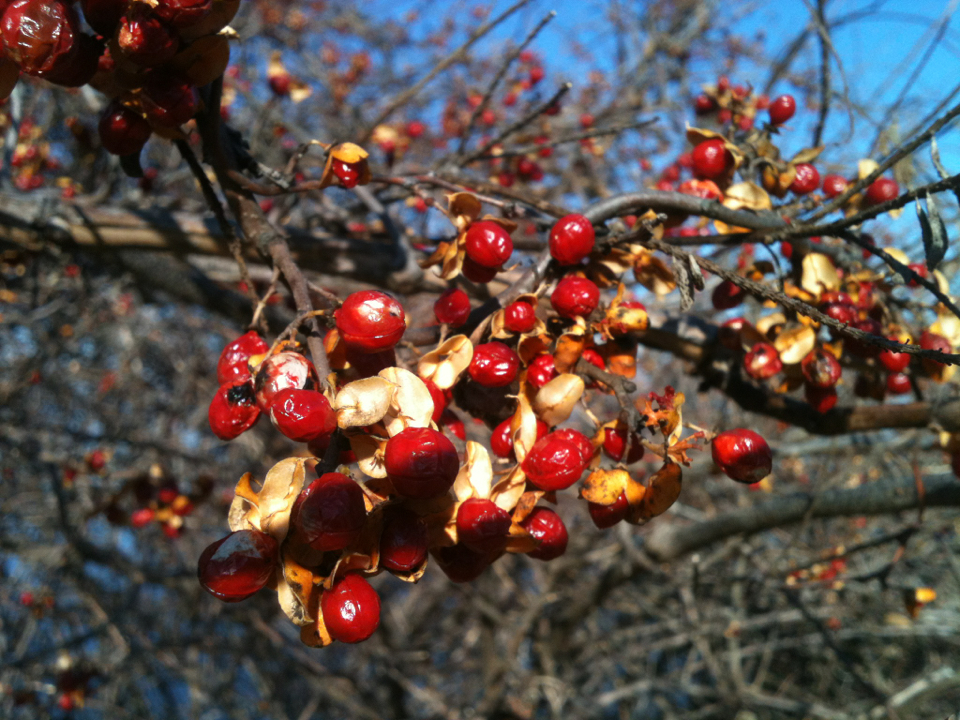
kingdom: Plantae
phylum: Tracheophyta
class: Magnoliopsida
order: Celastrales
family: Celastraceae
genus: Celastrus
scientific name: Celastrus orbiculatus
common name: Oriental bittersweet
